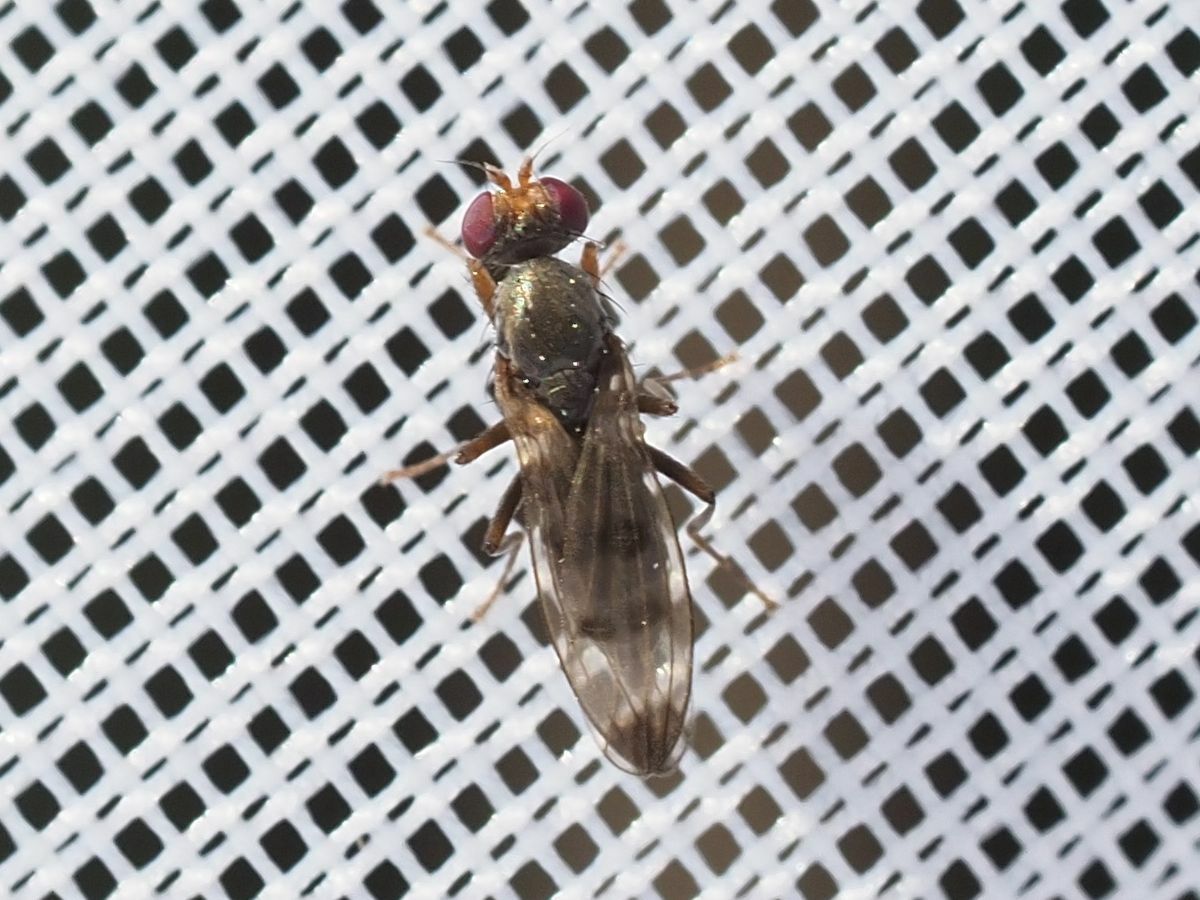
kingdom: Animalia
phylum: Arthropoda
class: Insecta
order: Diptera
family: Opomyzidae
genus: Geomyza
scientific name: Geomyza tripunctata
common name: Cereal fly
